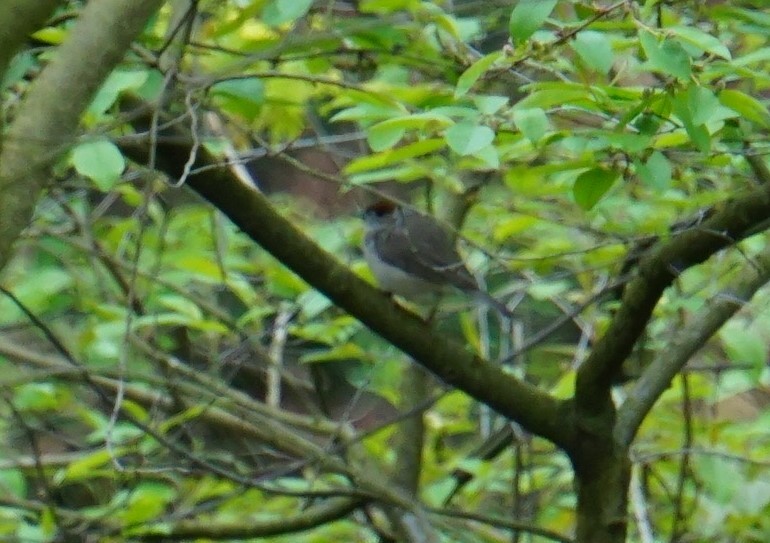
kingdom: Animalia
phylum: Chordata
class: Aves
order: Passeriformes
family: Sylviidae
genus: Sylvia
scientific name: Sylvia atricapilla
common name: Eurasian blackcap
